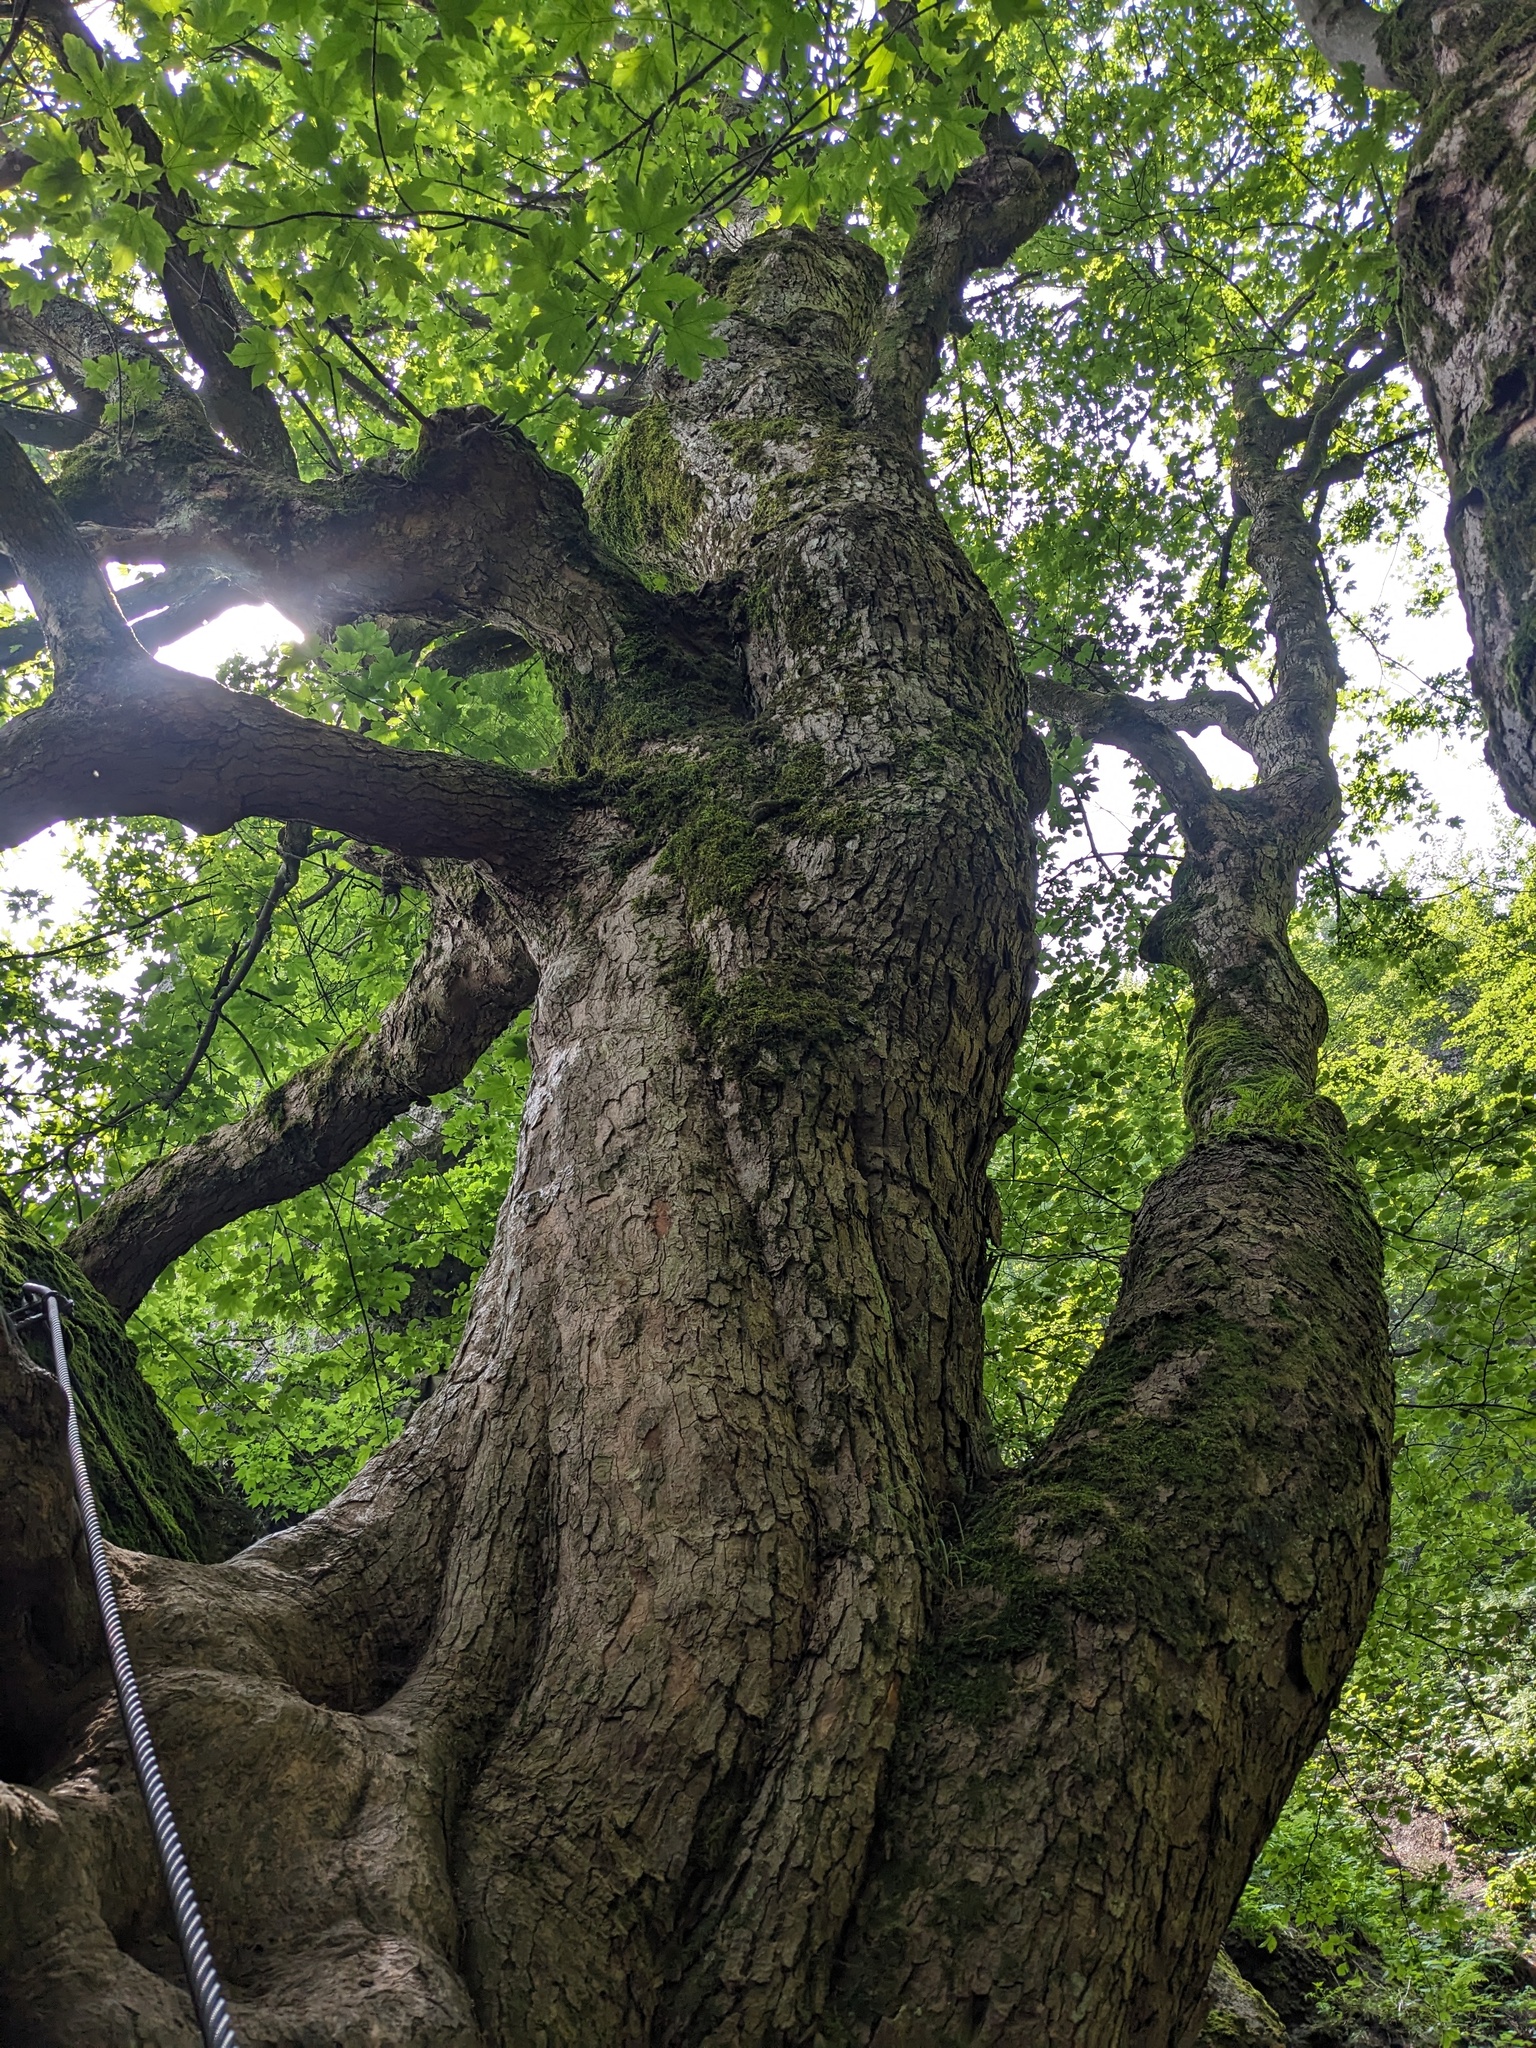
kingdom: Plantae
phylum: Tracheophyta
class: Magnoliopsida
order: Sapindales
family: Sapindaceae
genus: Acer
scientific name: Acer pseudoplatanus
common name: Sycamore
